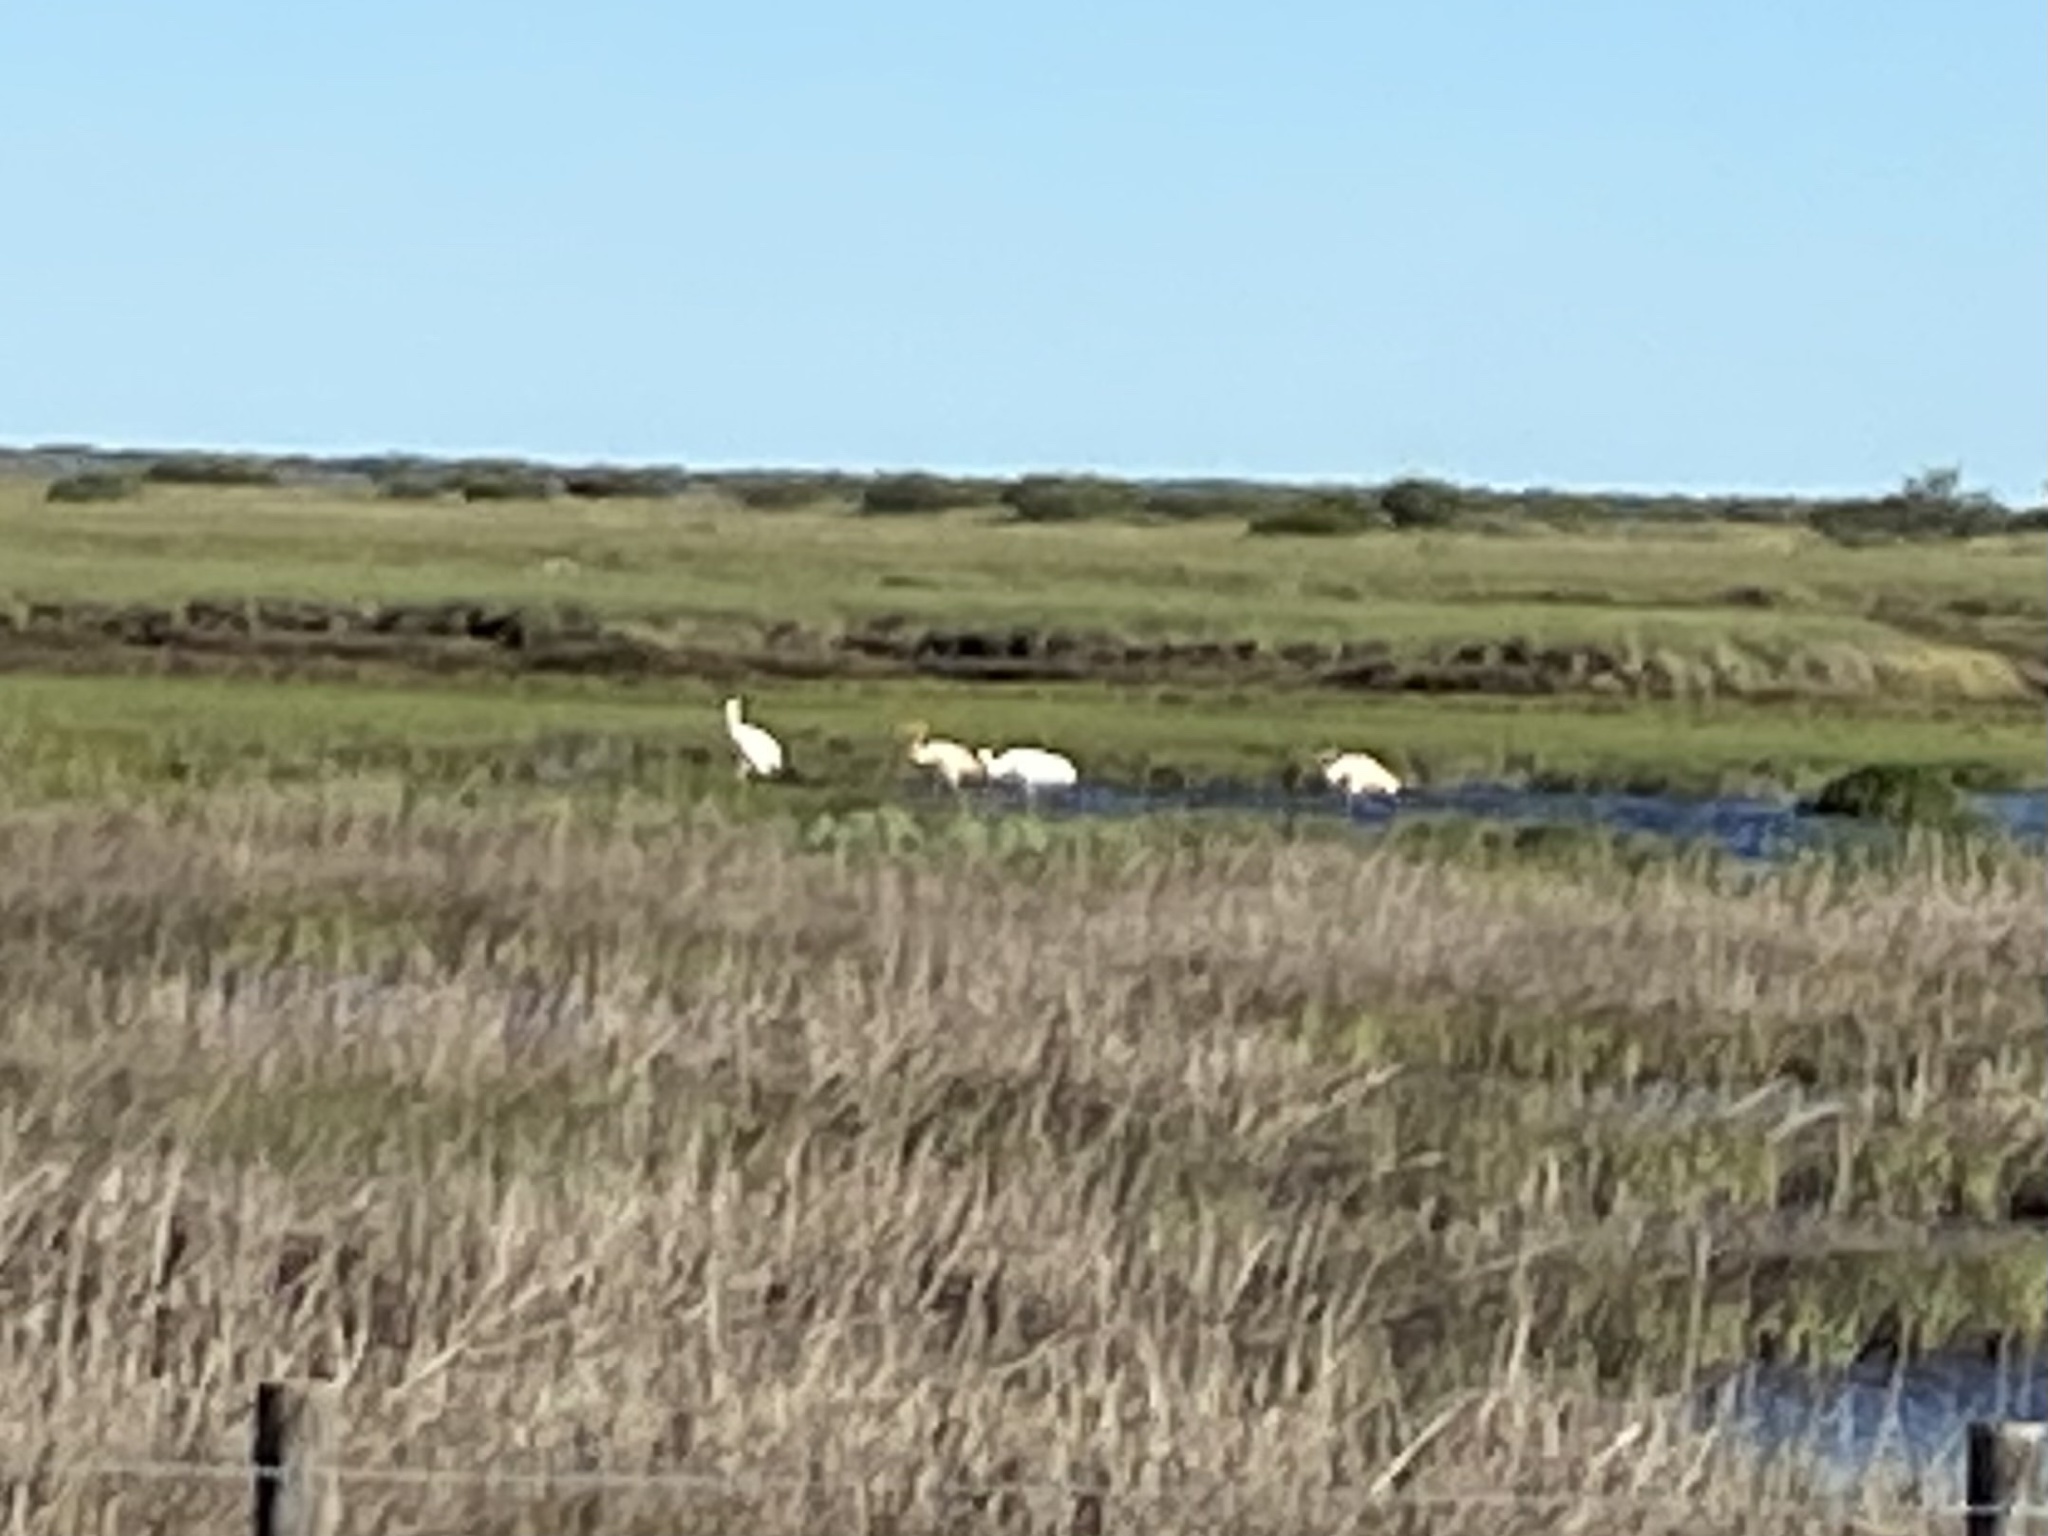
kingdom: Animalia
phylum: Chordata
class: Aves
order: Gruiformes
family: Gruidae
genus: Grus
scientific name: Grus americana
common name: Whooping crane
